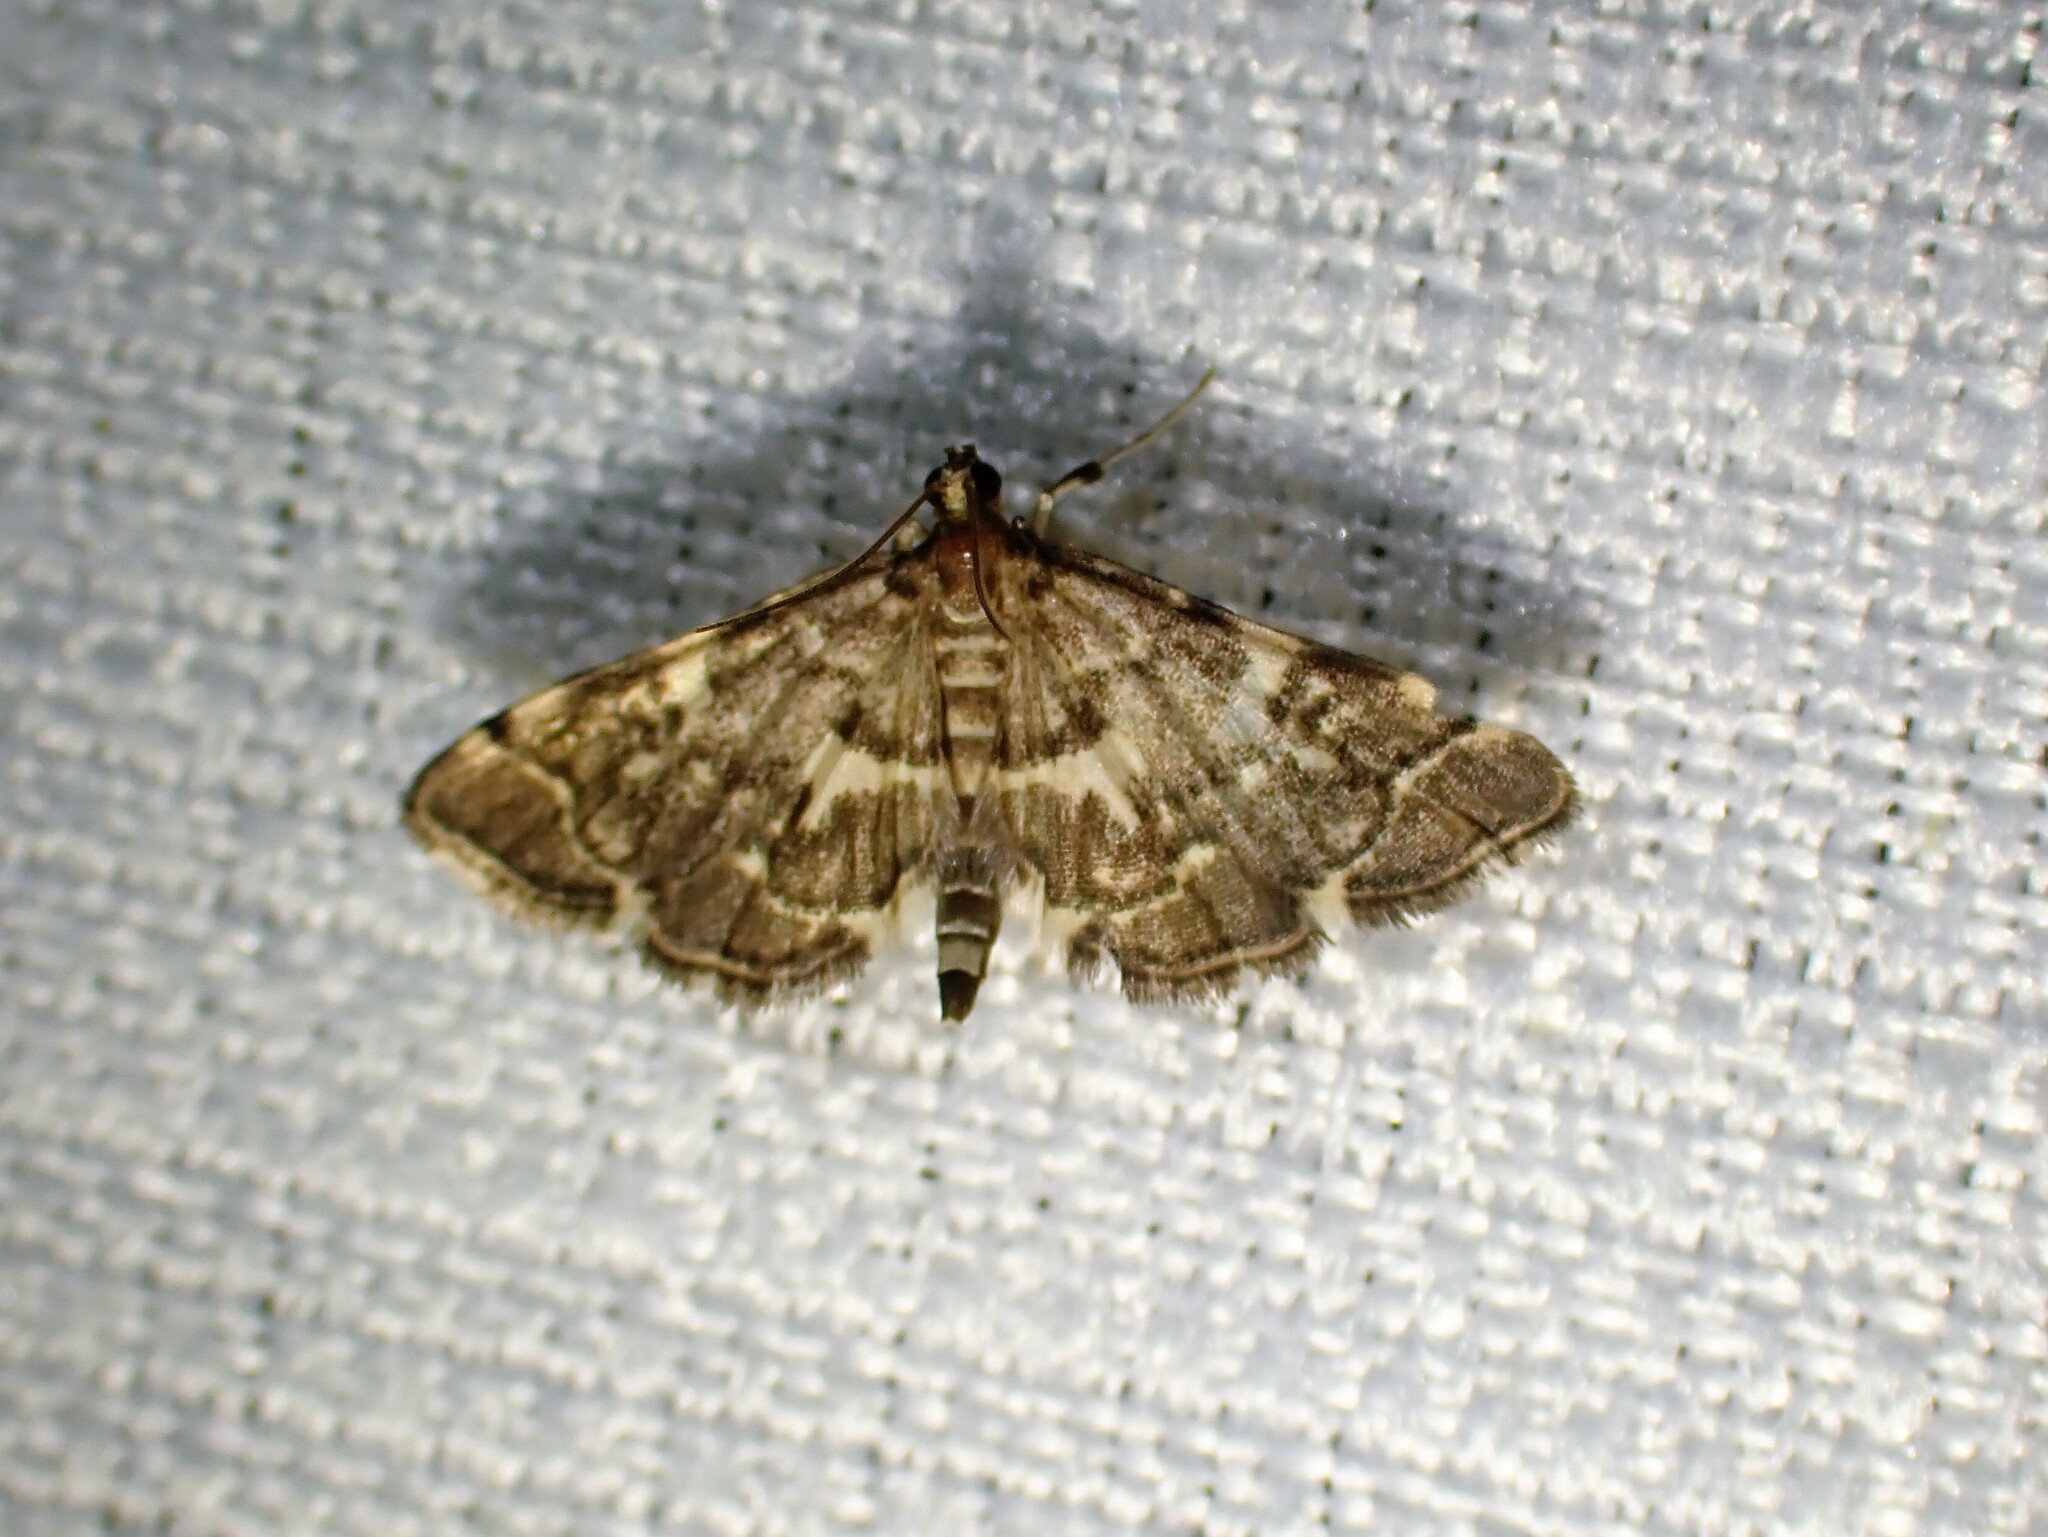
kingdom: Animalia
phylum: Arthropoda
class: Insecta
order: Lepidoptera
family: Crambidae
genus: Anageshna
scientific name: Anageshna primordialis
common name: Yellow-spotted webworm moth
